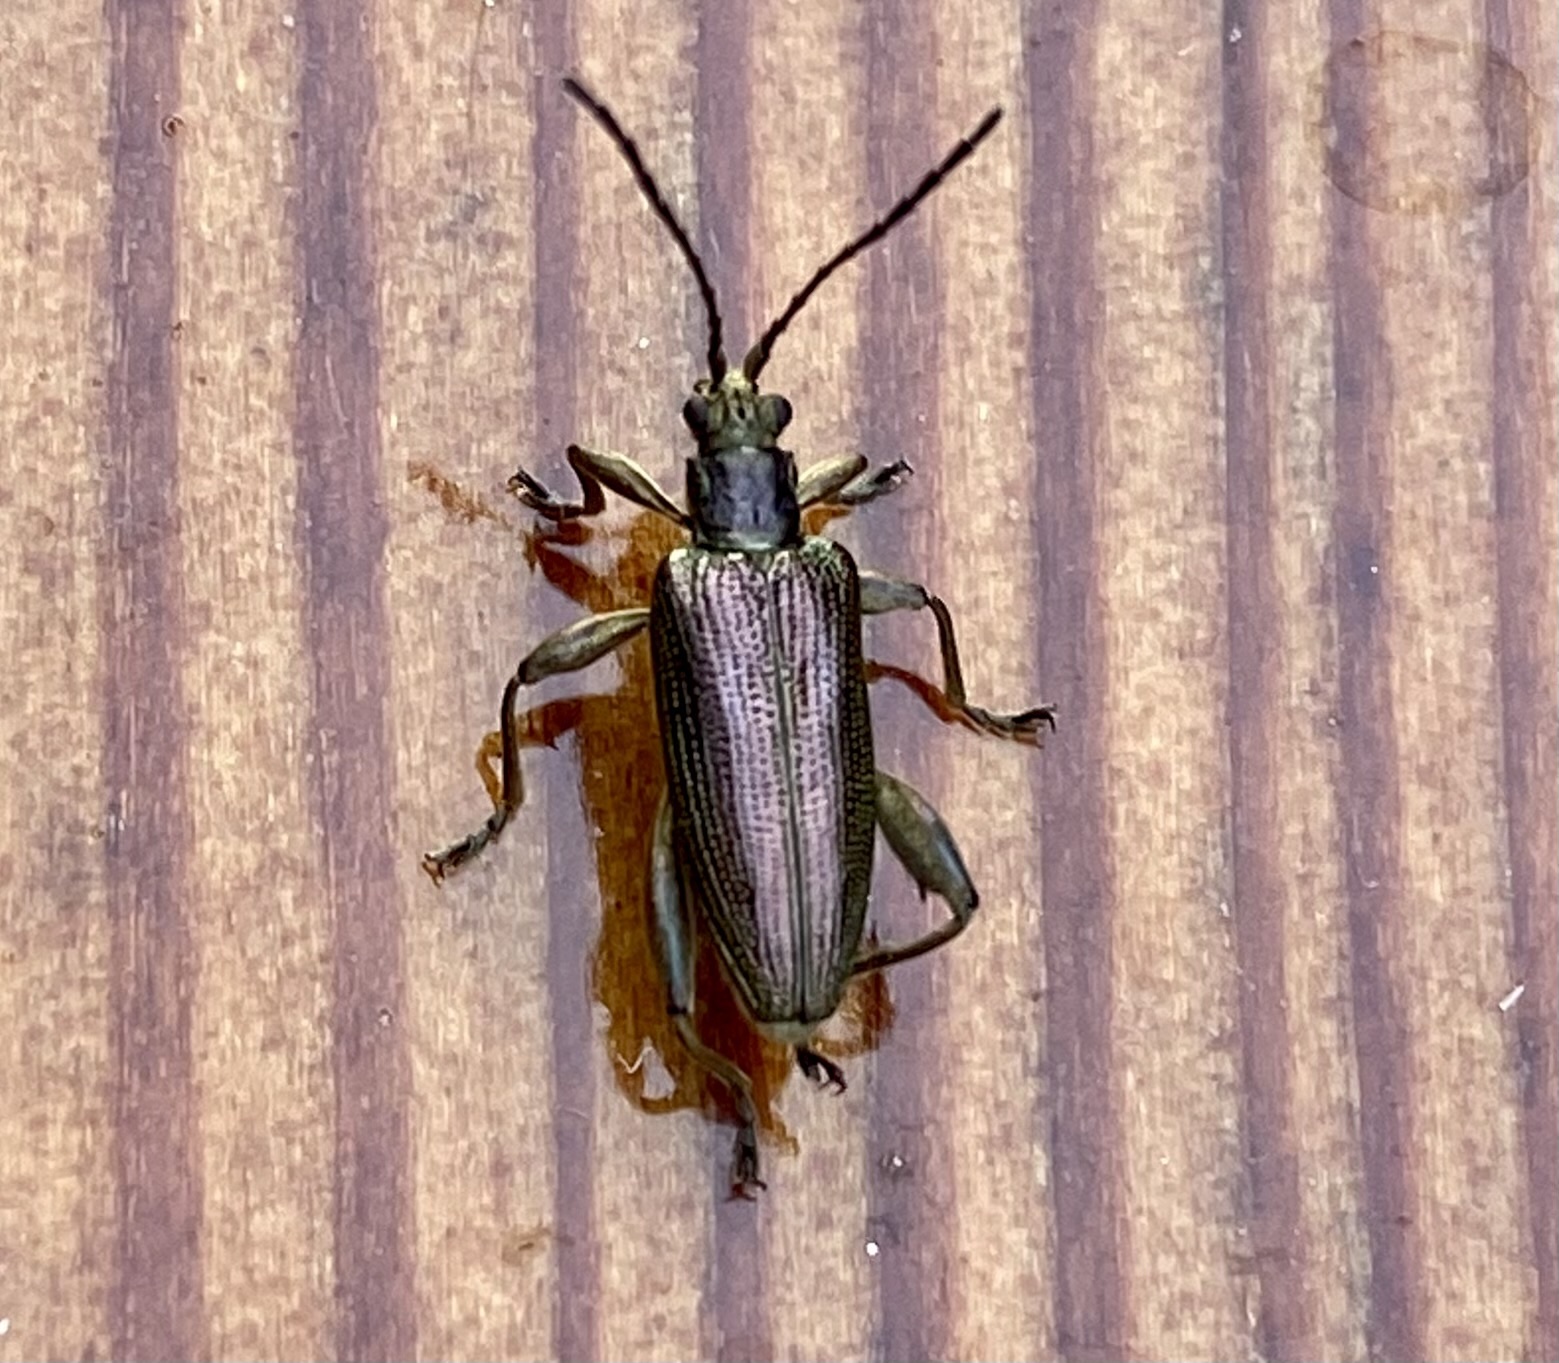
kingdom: Animalia
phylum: Arthropoda
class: Insecta
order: Coleoptera
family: Chrysomelidae
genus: Donacia
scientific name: Donacia crassipes
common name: Water-lily reed beetle
